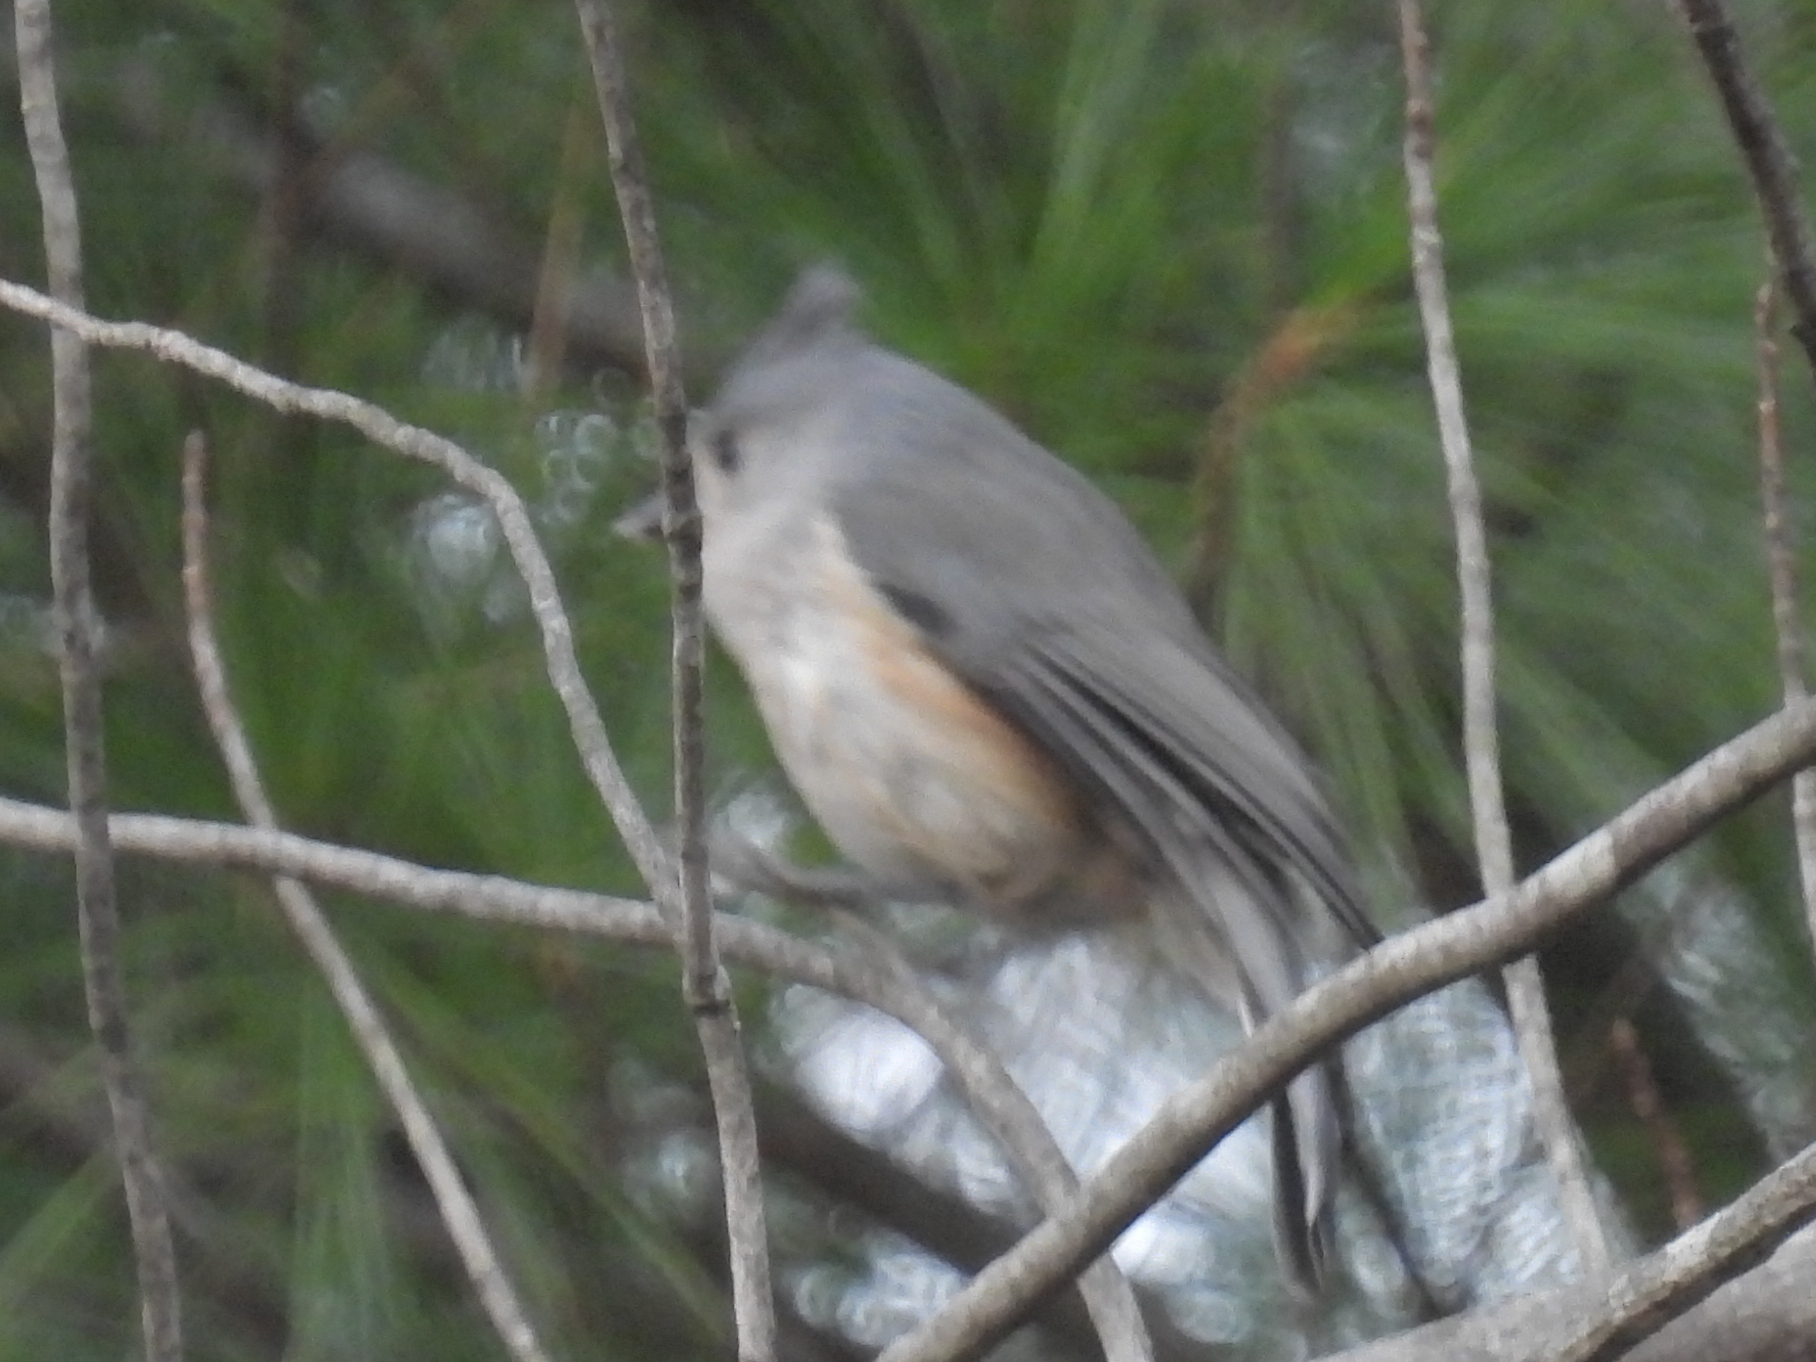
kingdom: Animalia
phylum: Chordata
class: Aves
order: Passeriformes
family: Paridae
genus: Baeolophus
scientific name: Baeolophus bicolor
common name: Tufted titmouse
